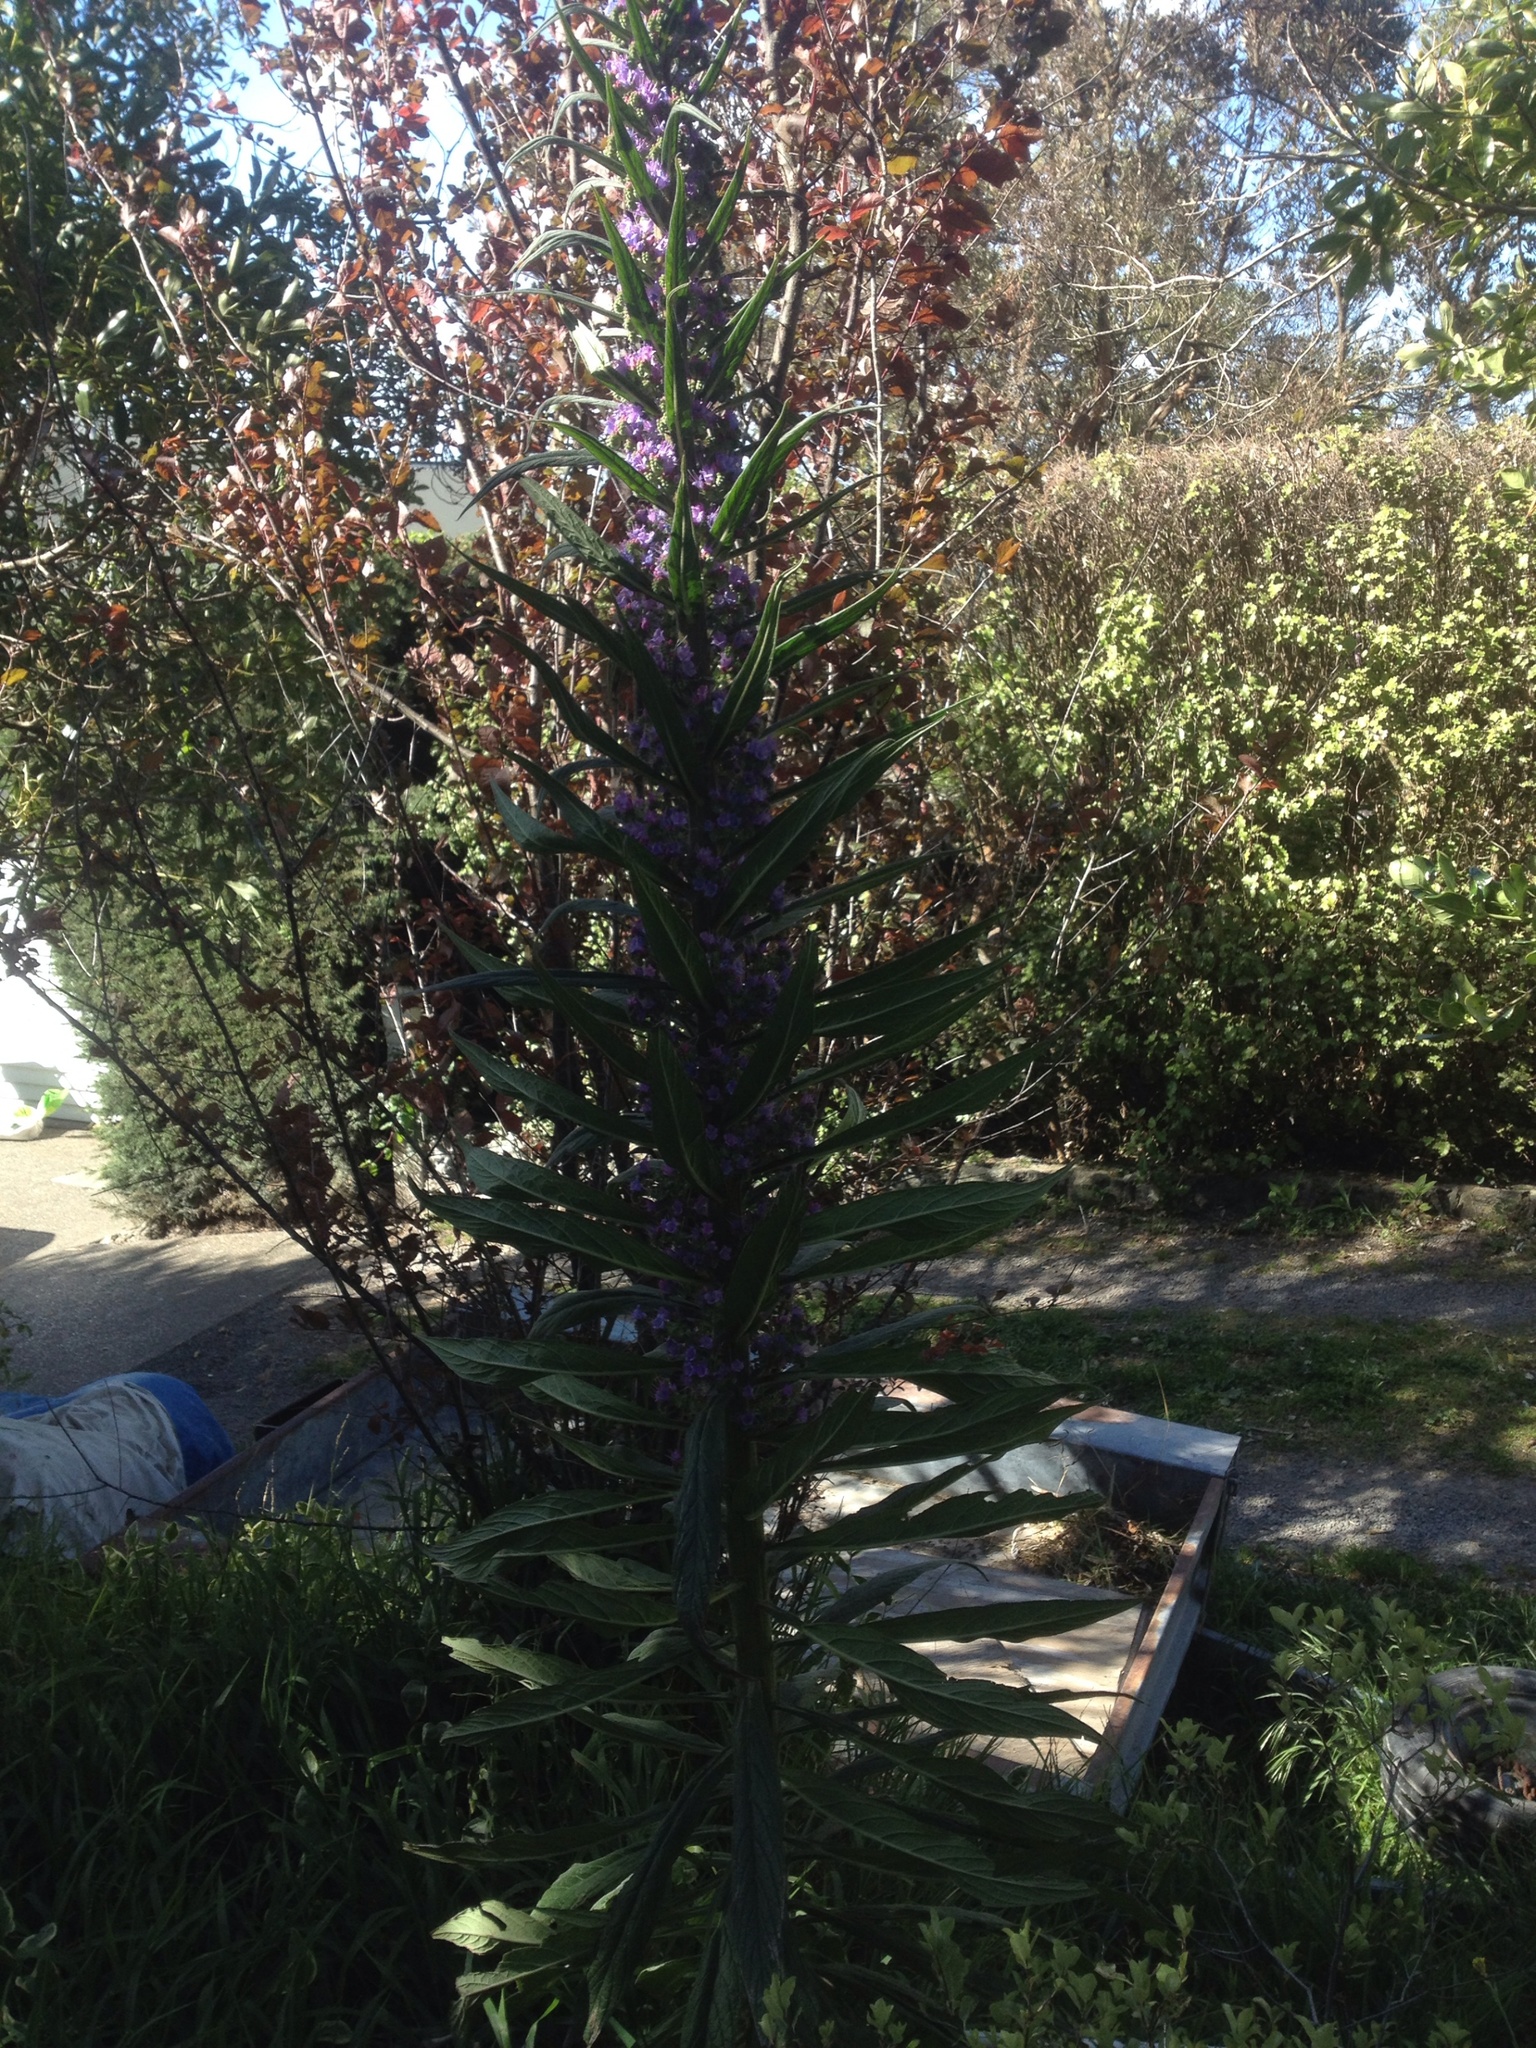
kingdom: Plantae
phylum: Tracheophyta
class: Magnoliopsida
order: Boraginales
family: Boraginaceae
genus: Echium
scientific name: Echium pininana
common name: Giant viper's-bugloss
